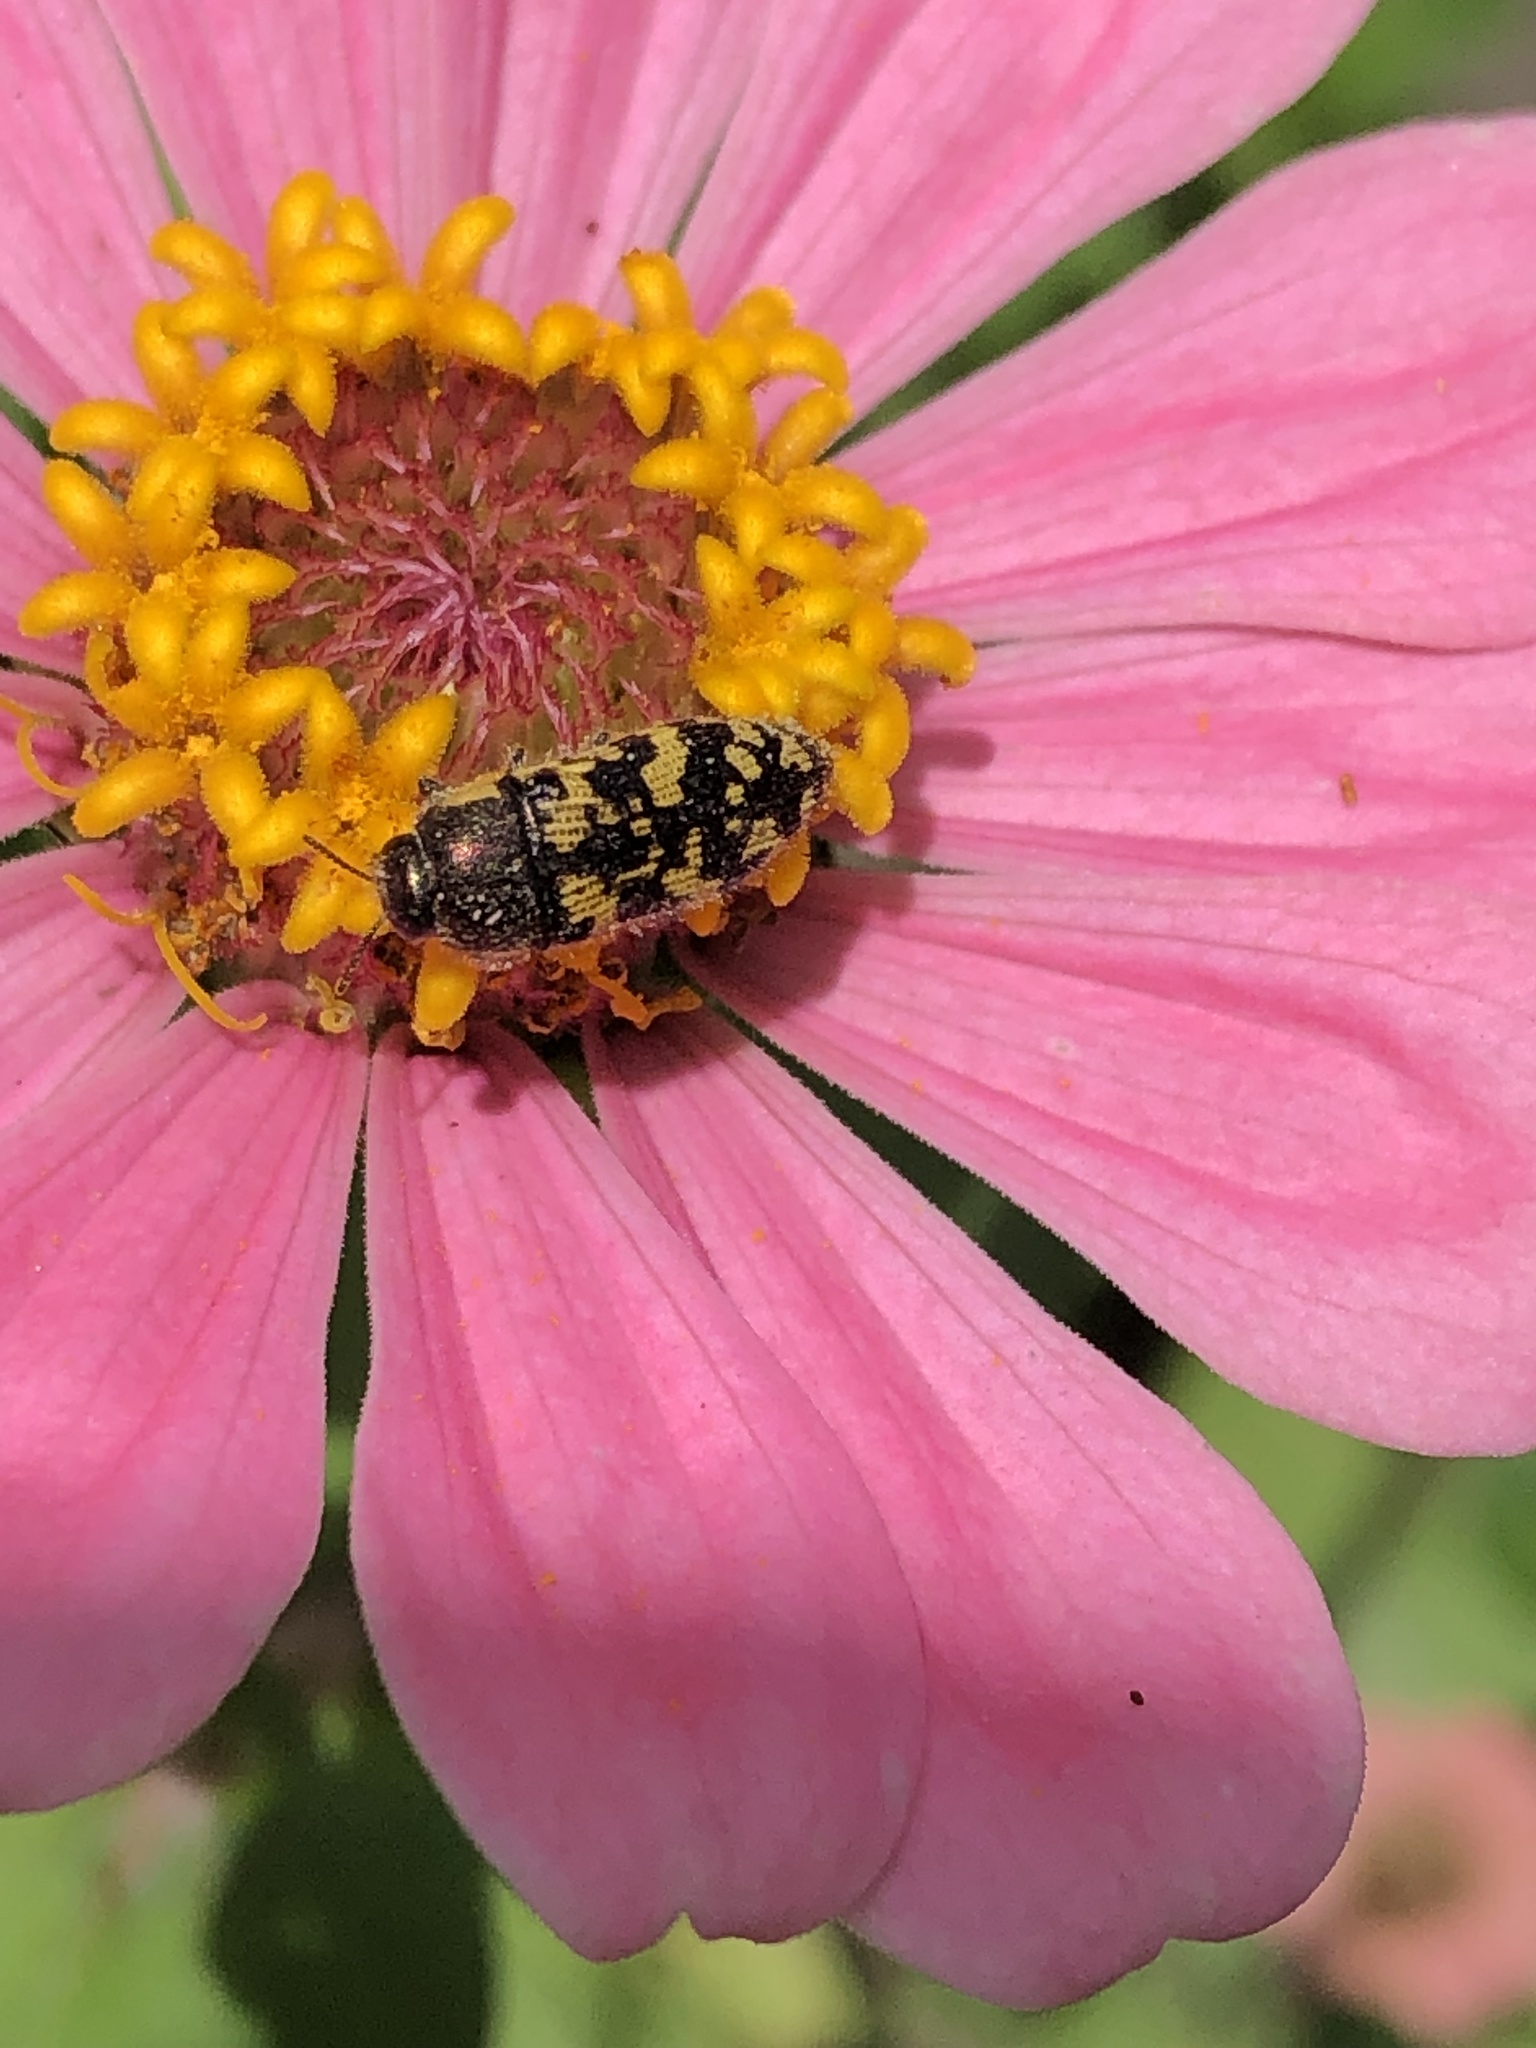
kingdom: Animalia
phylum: Arthropoda
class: Insecta
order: Coleoptera
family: Buprestidae
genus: Acmaeodera
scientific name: Acmaeodera mixta
